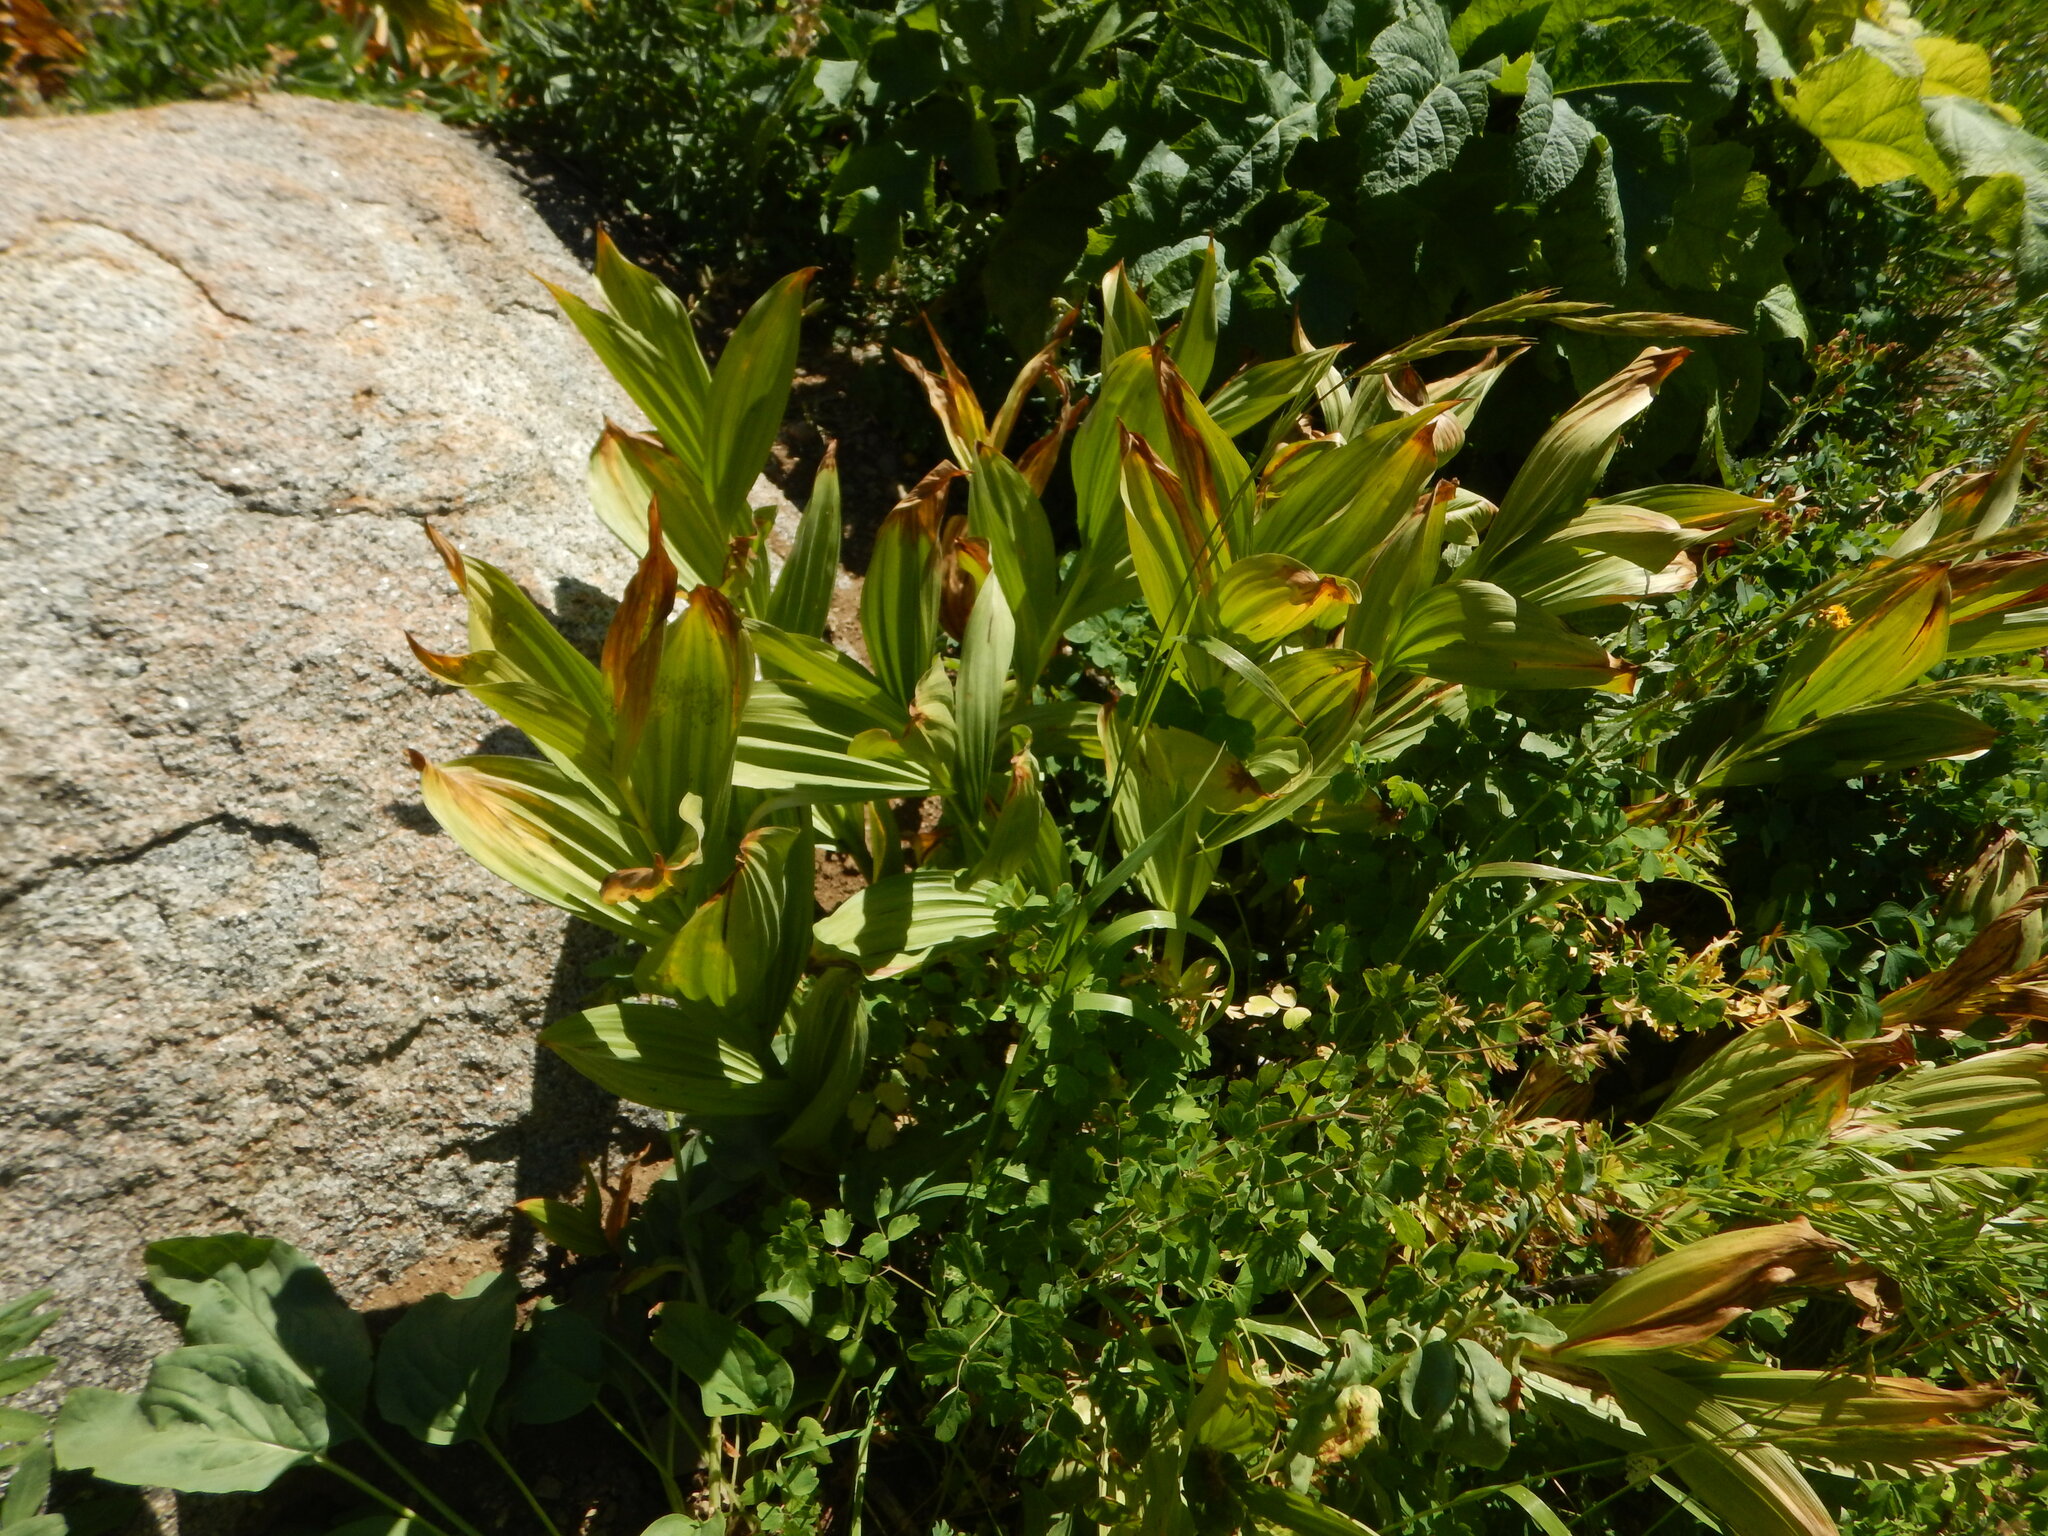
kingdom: Plantae
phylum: Tracheophyta
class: Liliopsida
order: Liliales
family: Melanthiaceae
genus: Veratrum
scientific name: Veratrum californicum
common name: California veratrum
